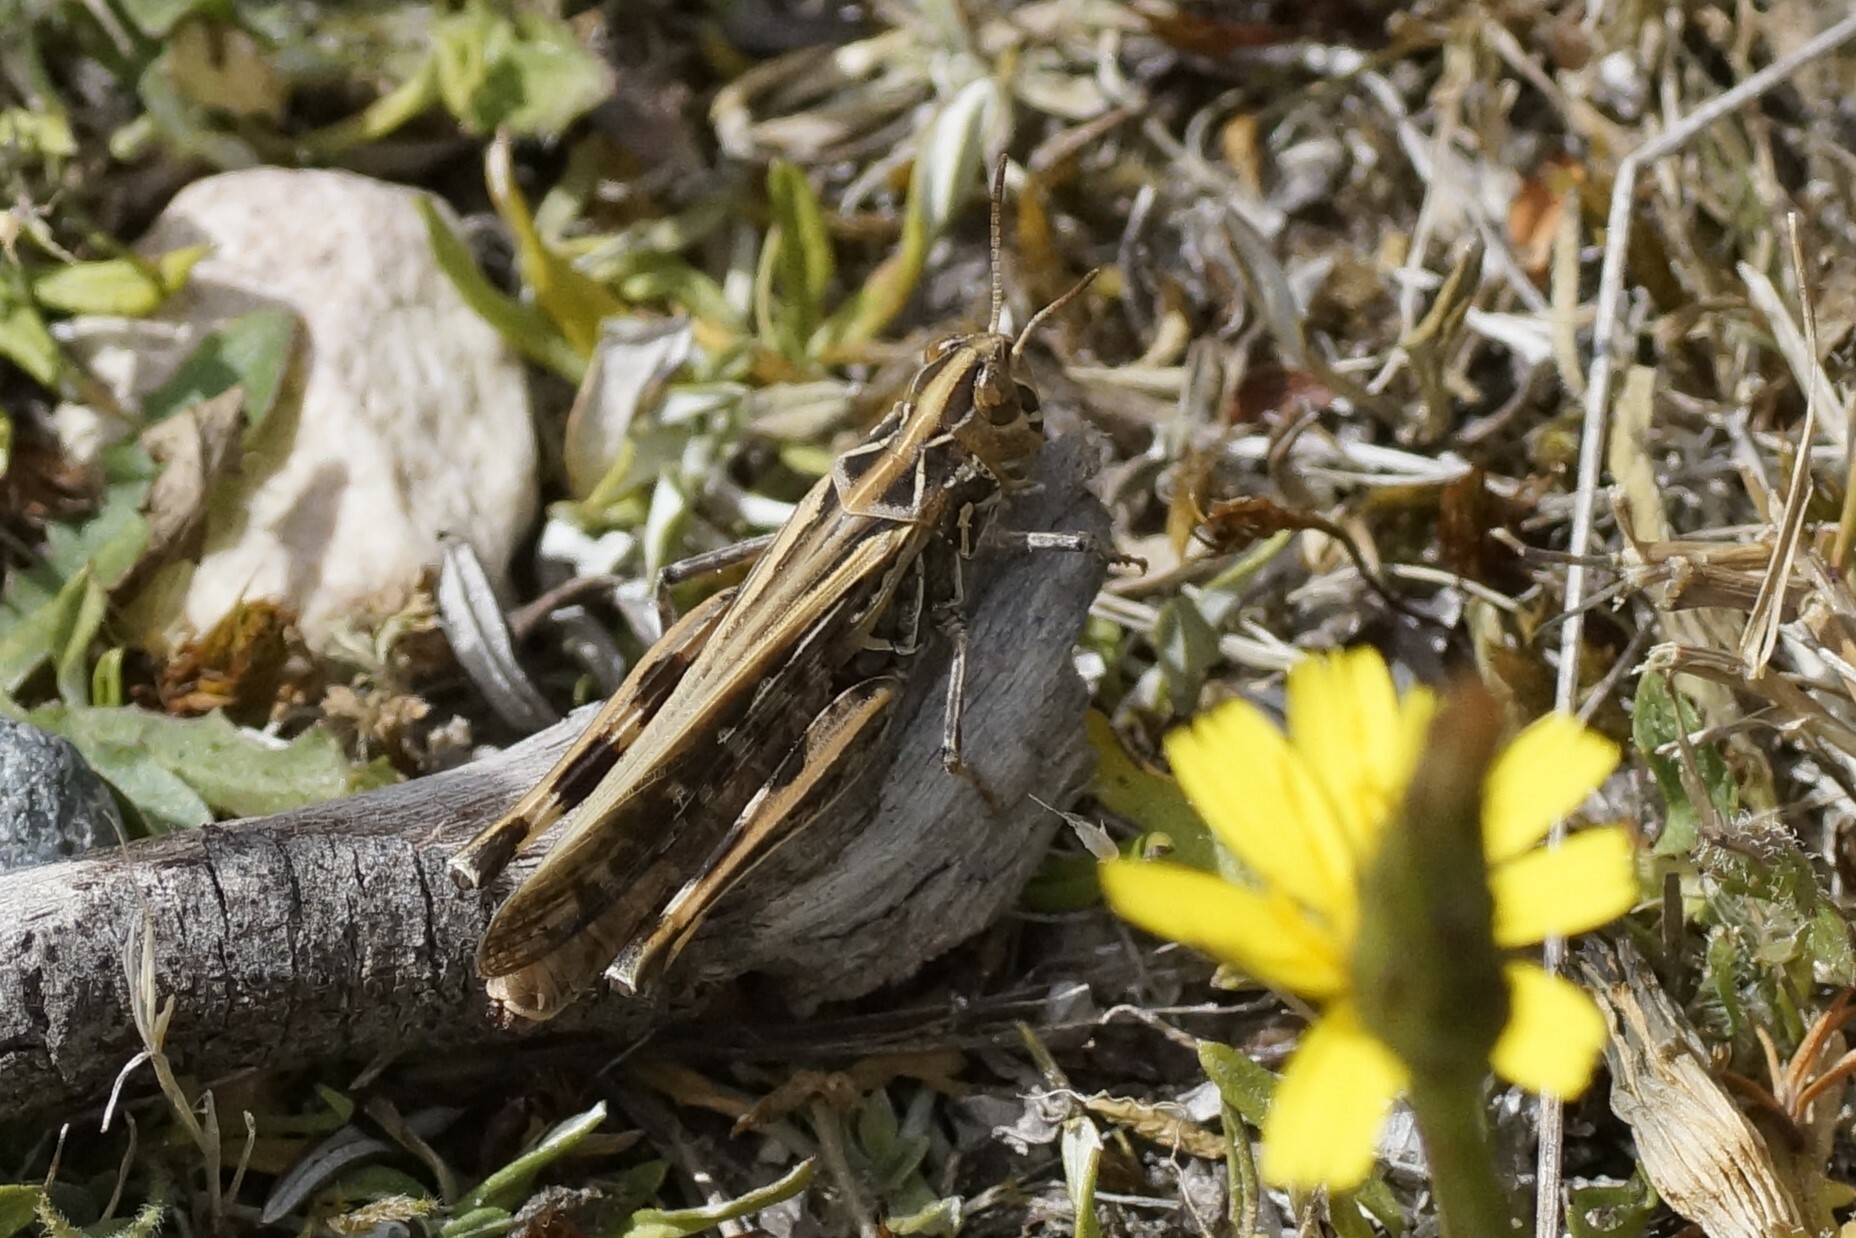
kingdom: Animalia
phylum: Arthropoda
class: Insecta
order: Orthoptera
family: Acrididae
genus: Austroicetes
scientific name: Austroicetes vulgaris
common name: Southeastern austroicetes
